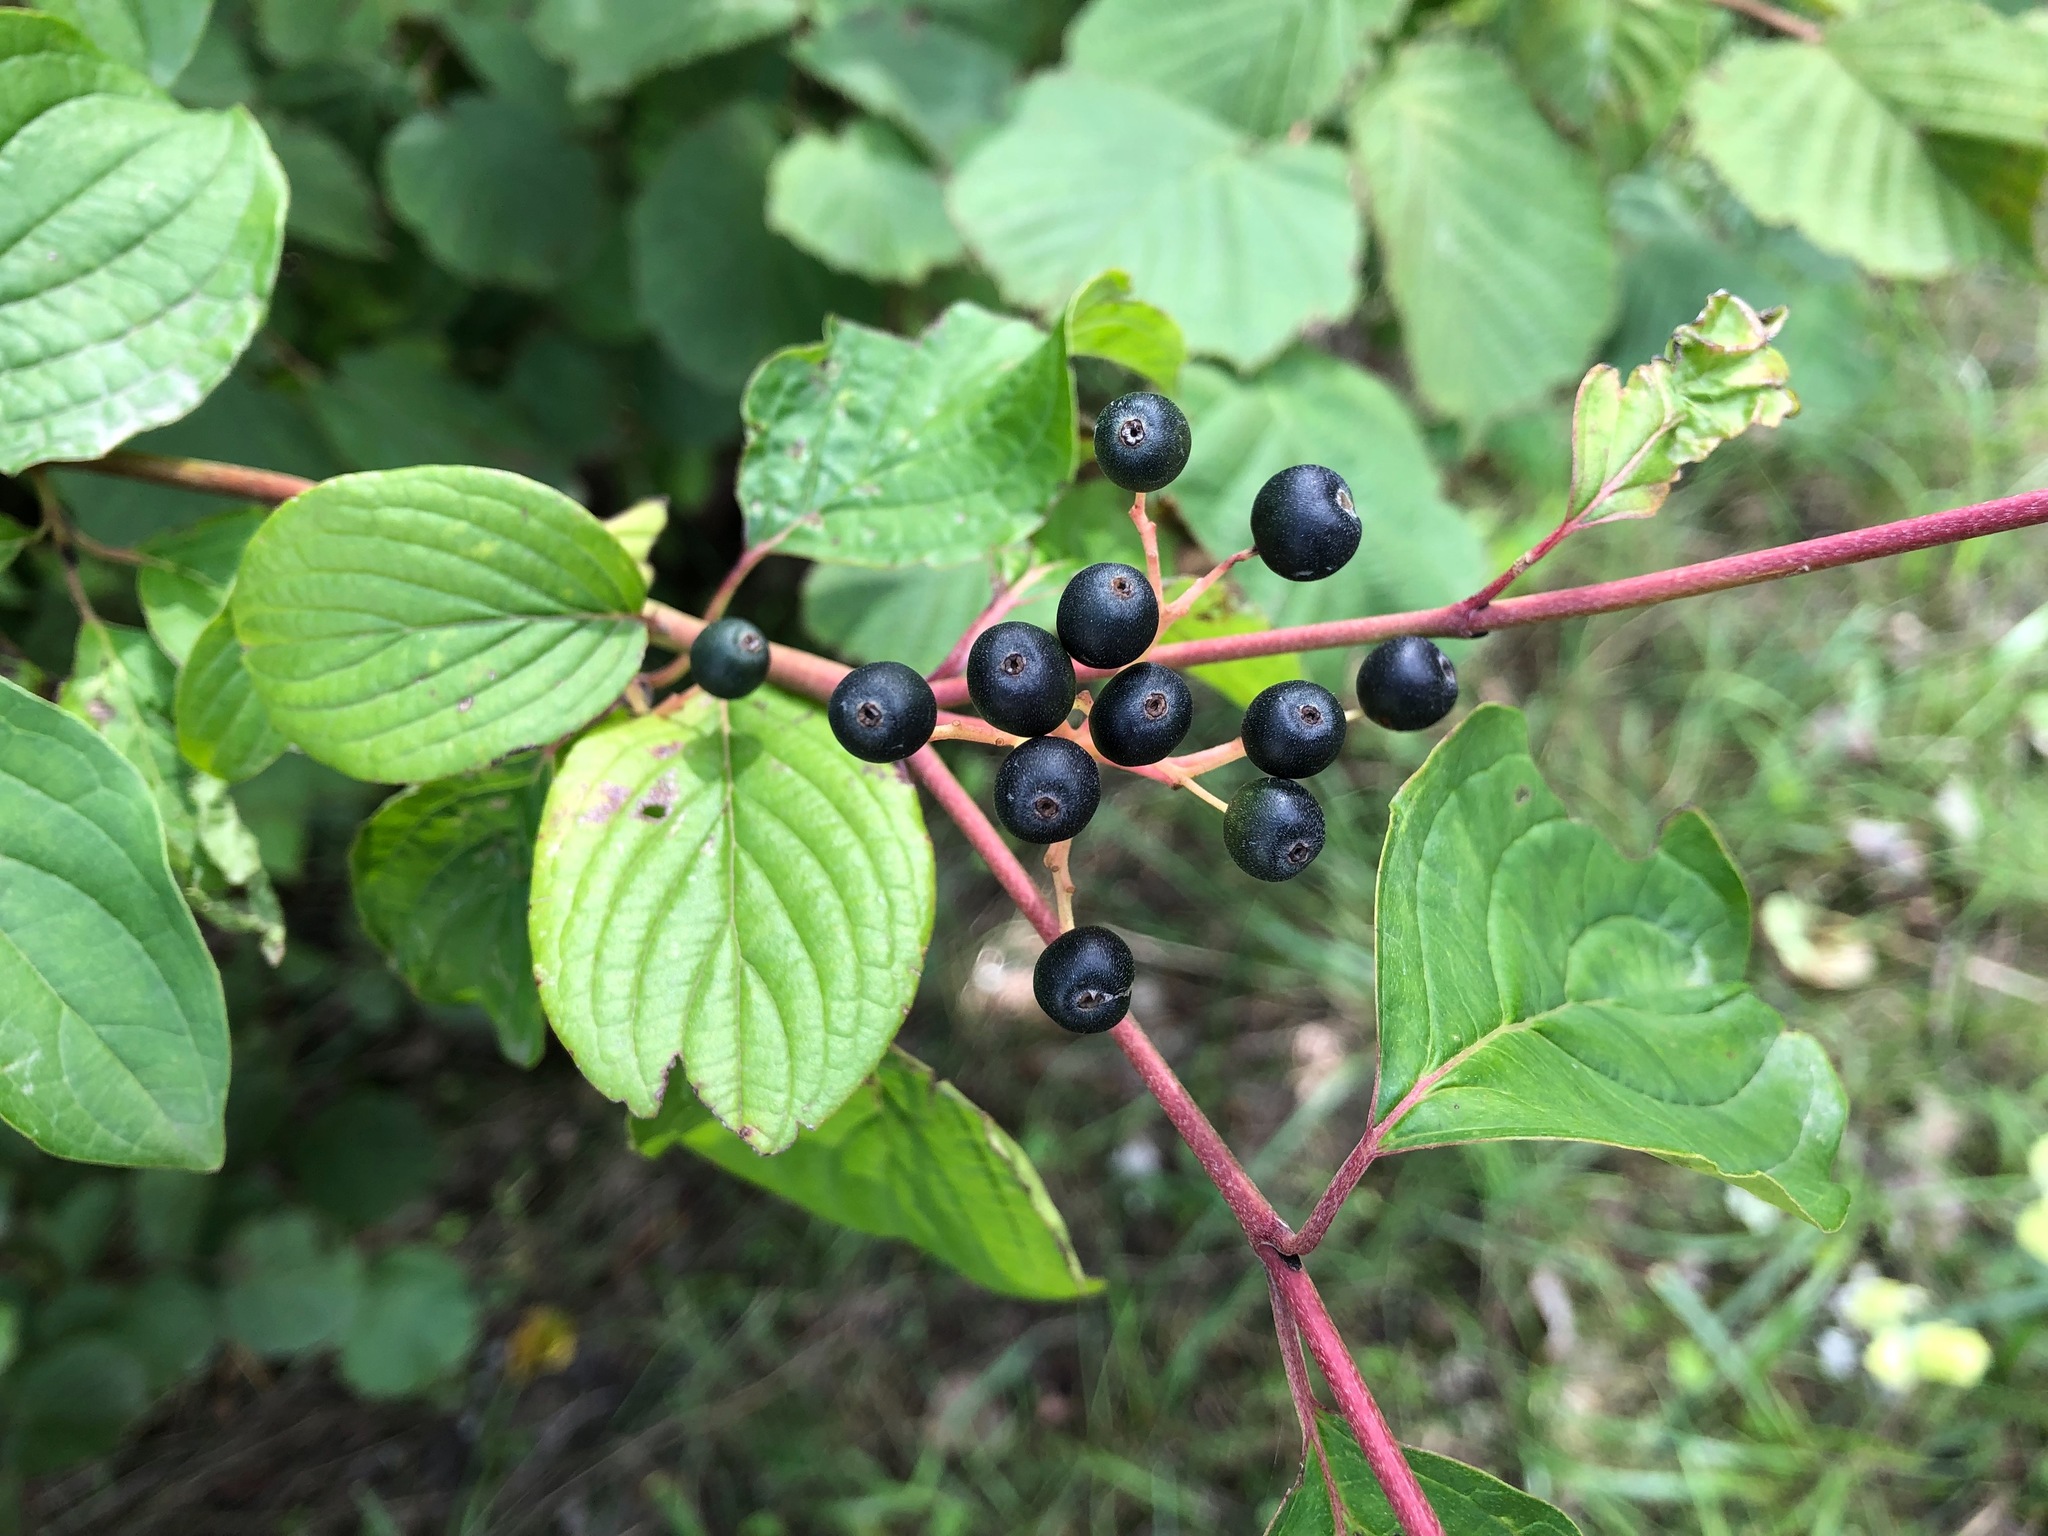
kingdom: Plantae
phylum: Tracheophyta
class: Magnoliopsida
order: Cornales
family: Cornaceae
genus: Cornus
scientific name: Cornus sanguinea
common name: Dogwood
